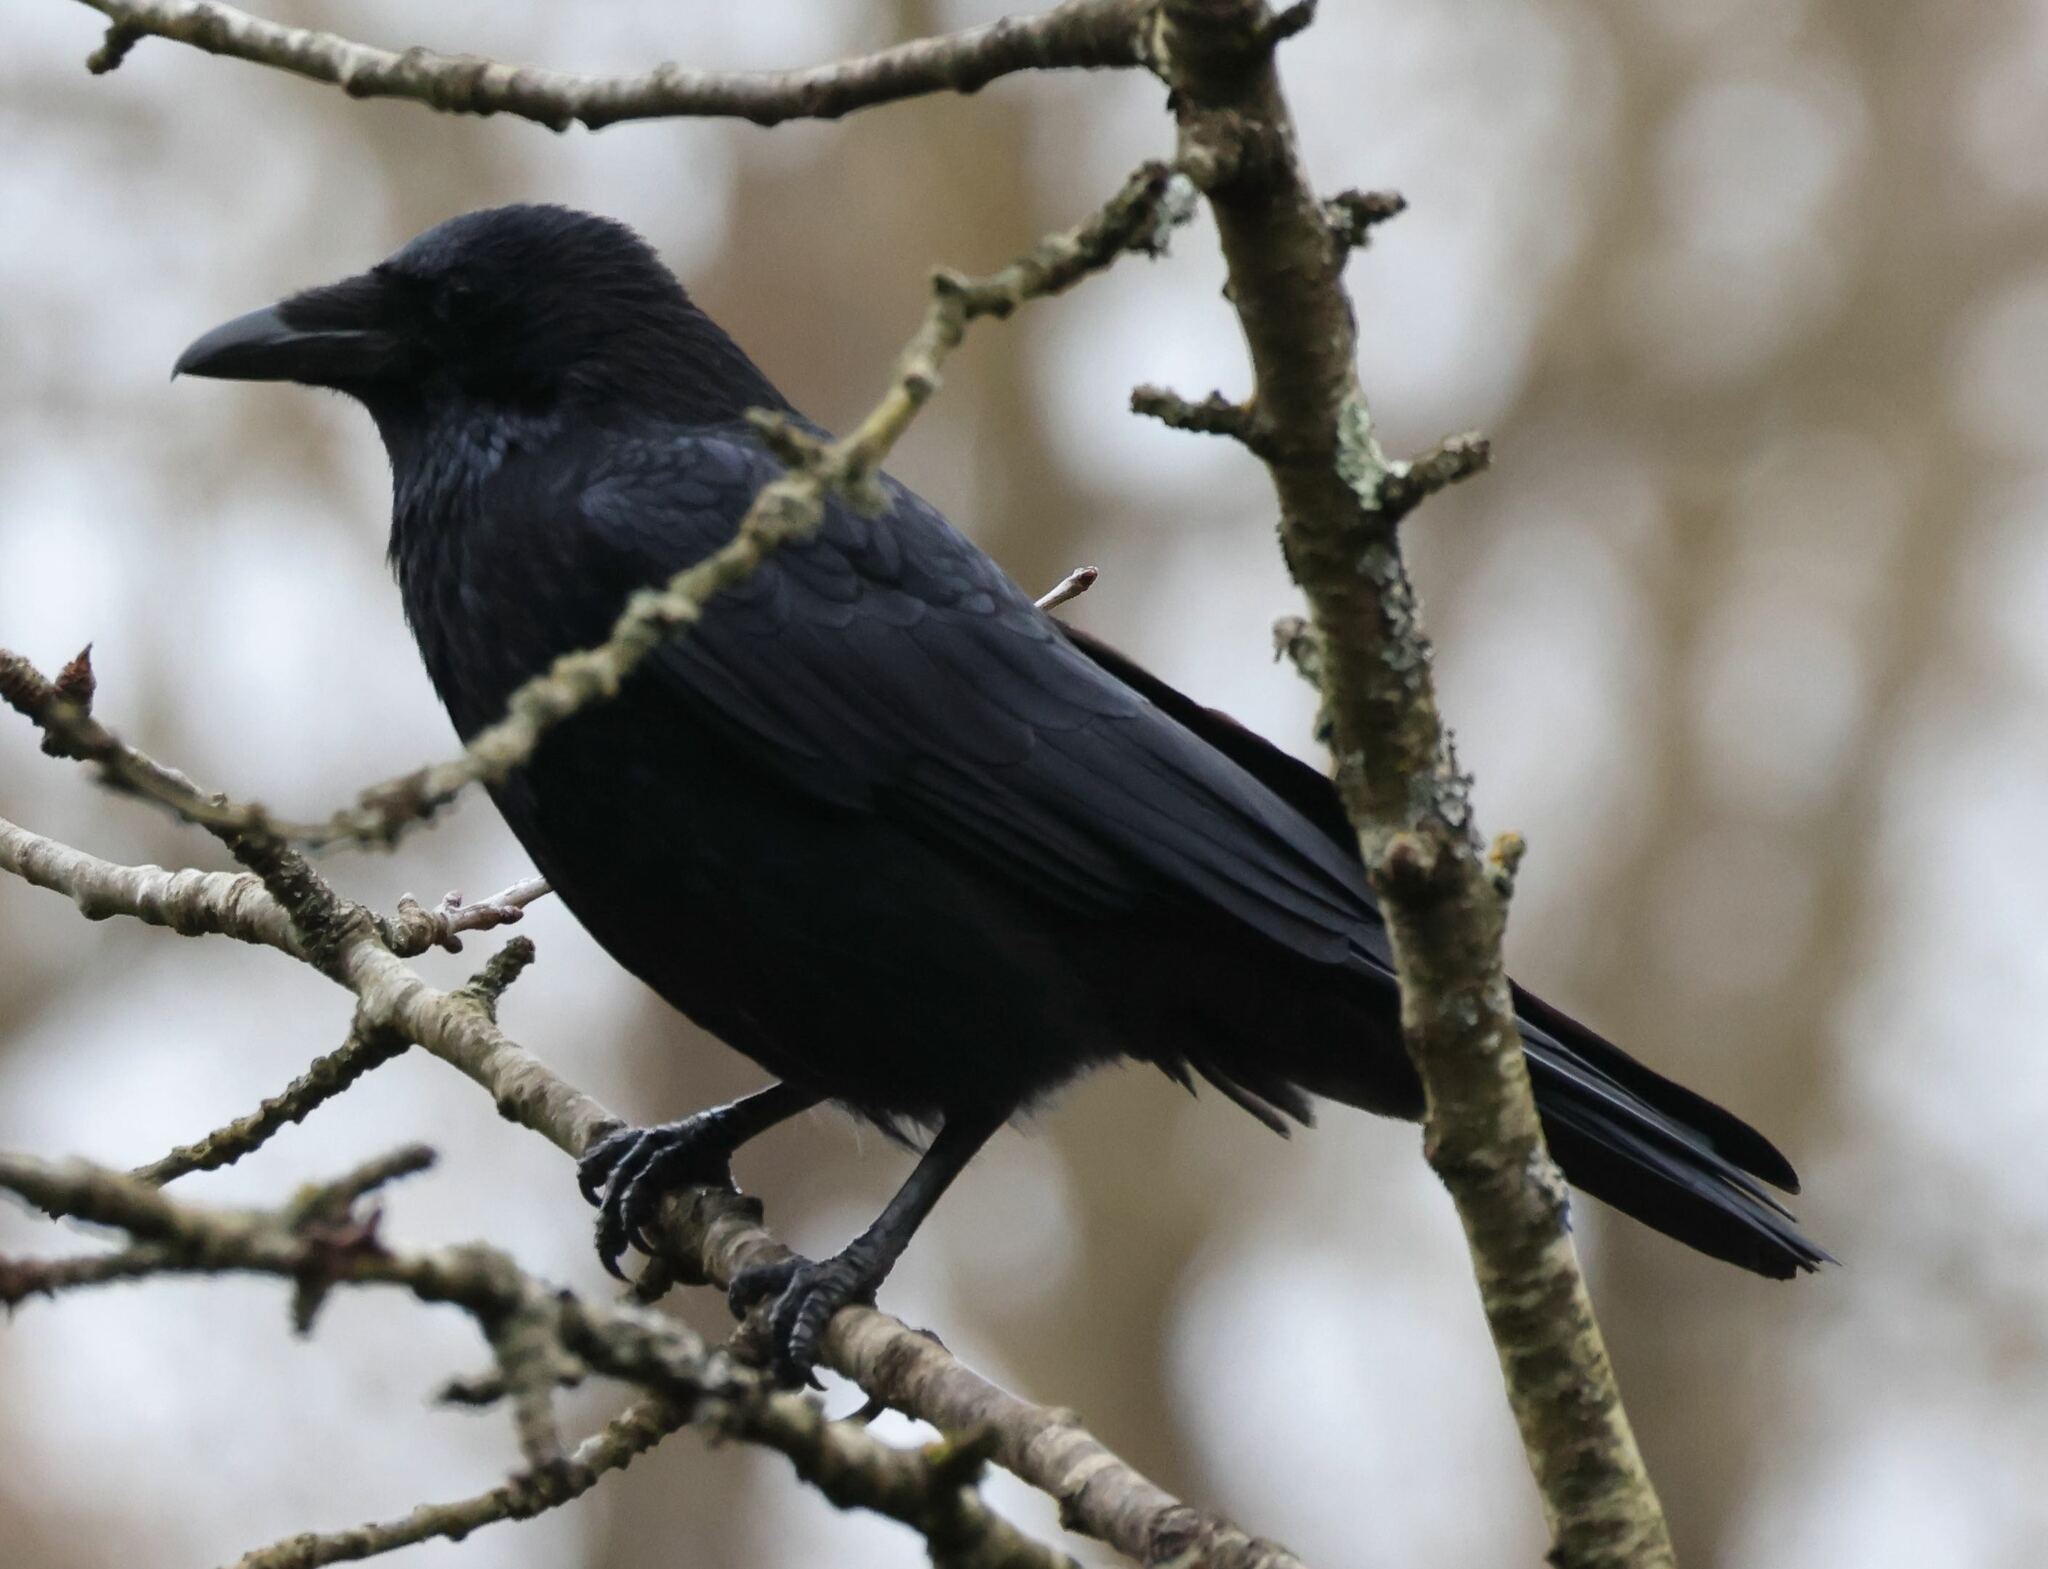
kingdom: Animalia
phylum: Chordata
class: Aves
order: Passeriformes
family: Corvidae
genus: Corvus
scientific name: Corvus corone
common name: Carrion crow
